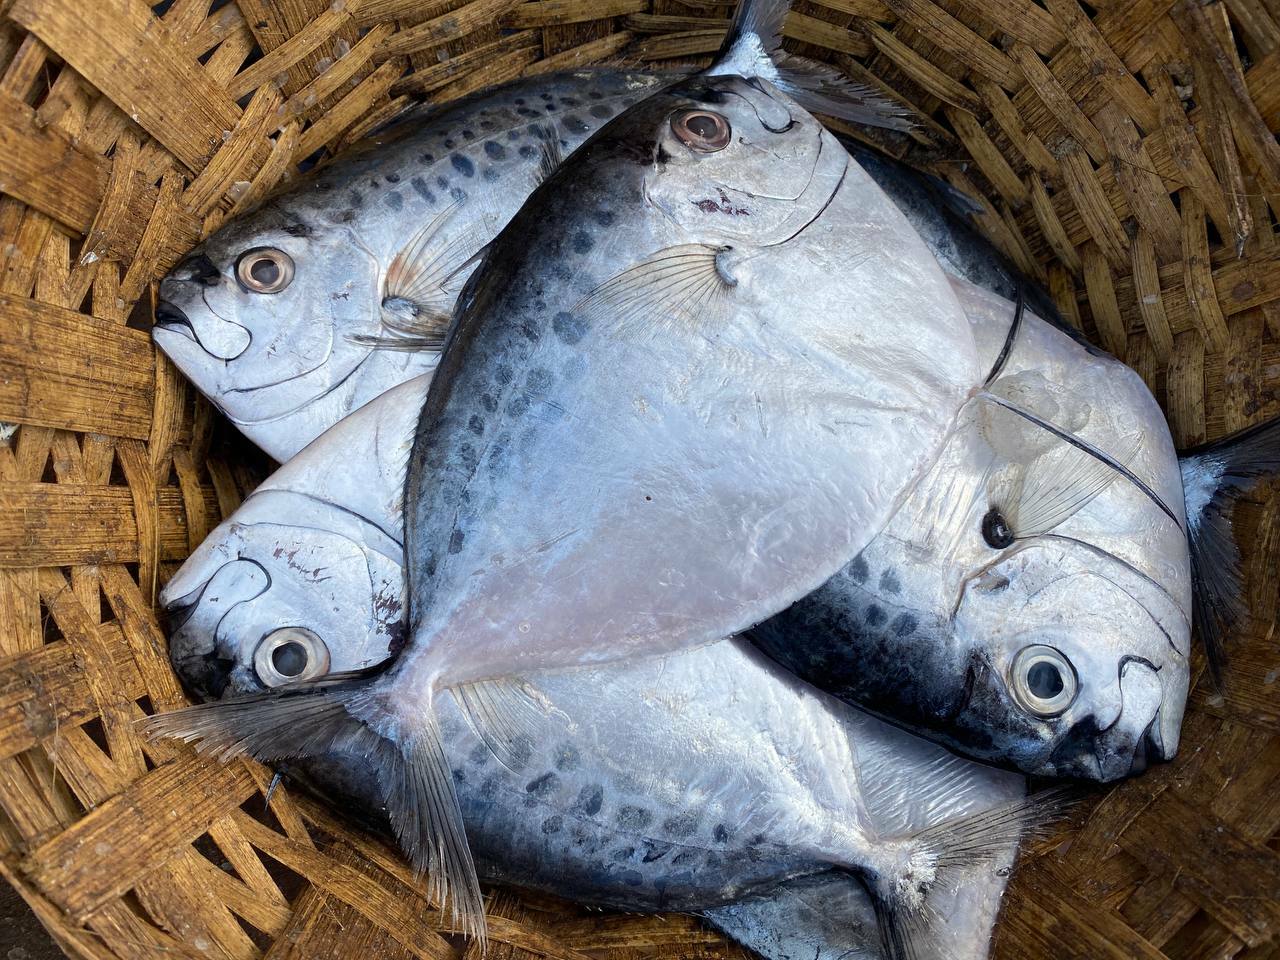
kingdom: Animalia
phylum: Chordata
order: Perciformes
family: Menidae
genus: Mene
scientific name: Mene maculata
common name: Moonfish
